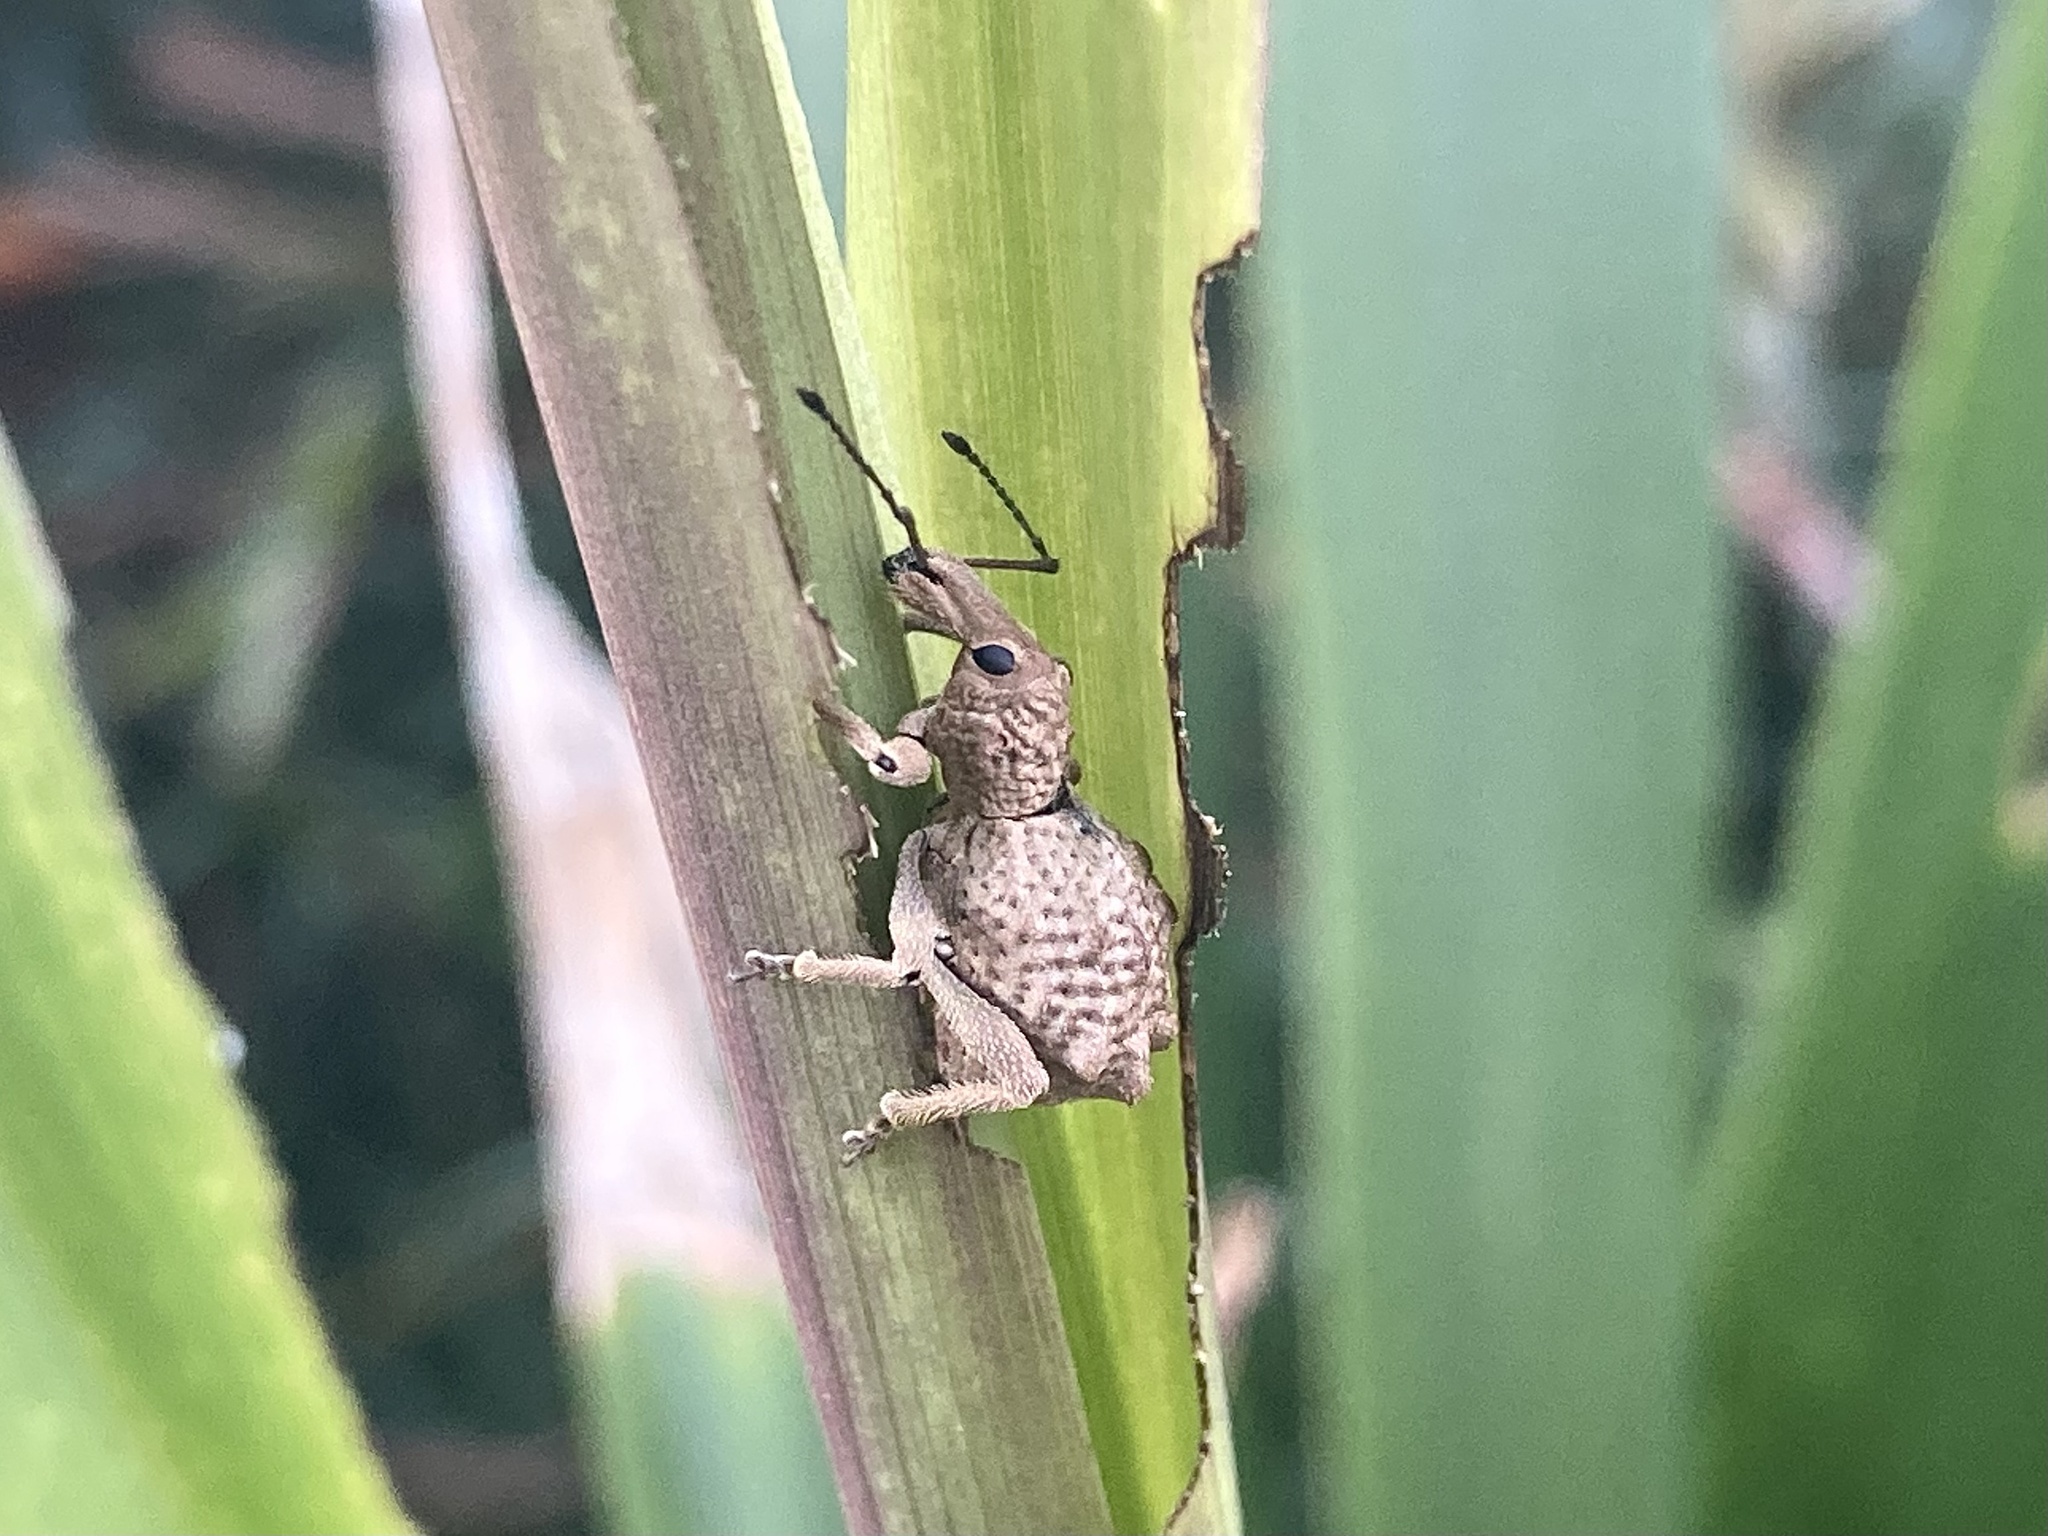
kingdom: Animalia
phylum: Arthropoda
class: Insecta
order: Coleoptera
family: Curculionidae
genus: Leptopius
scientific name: Leptopius tetraphysodes
